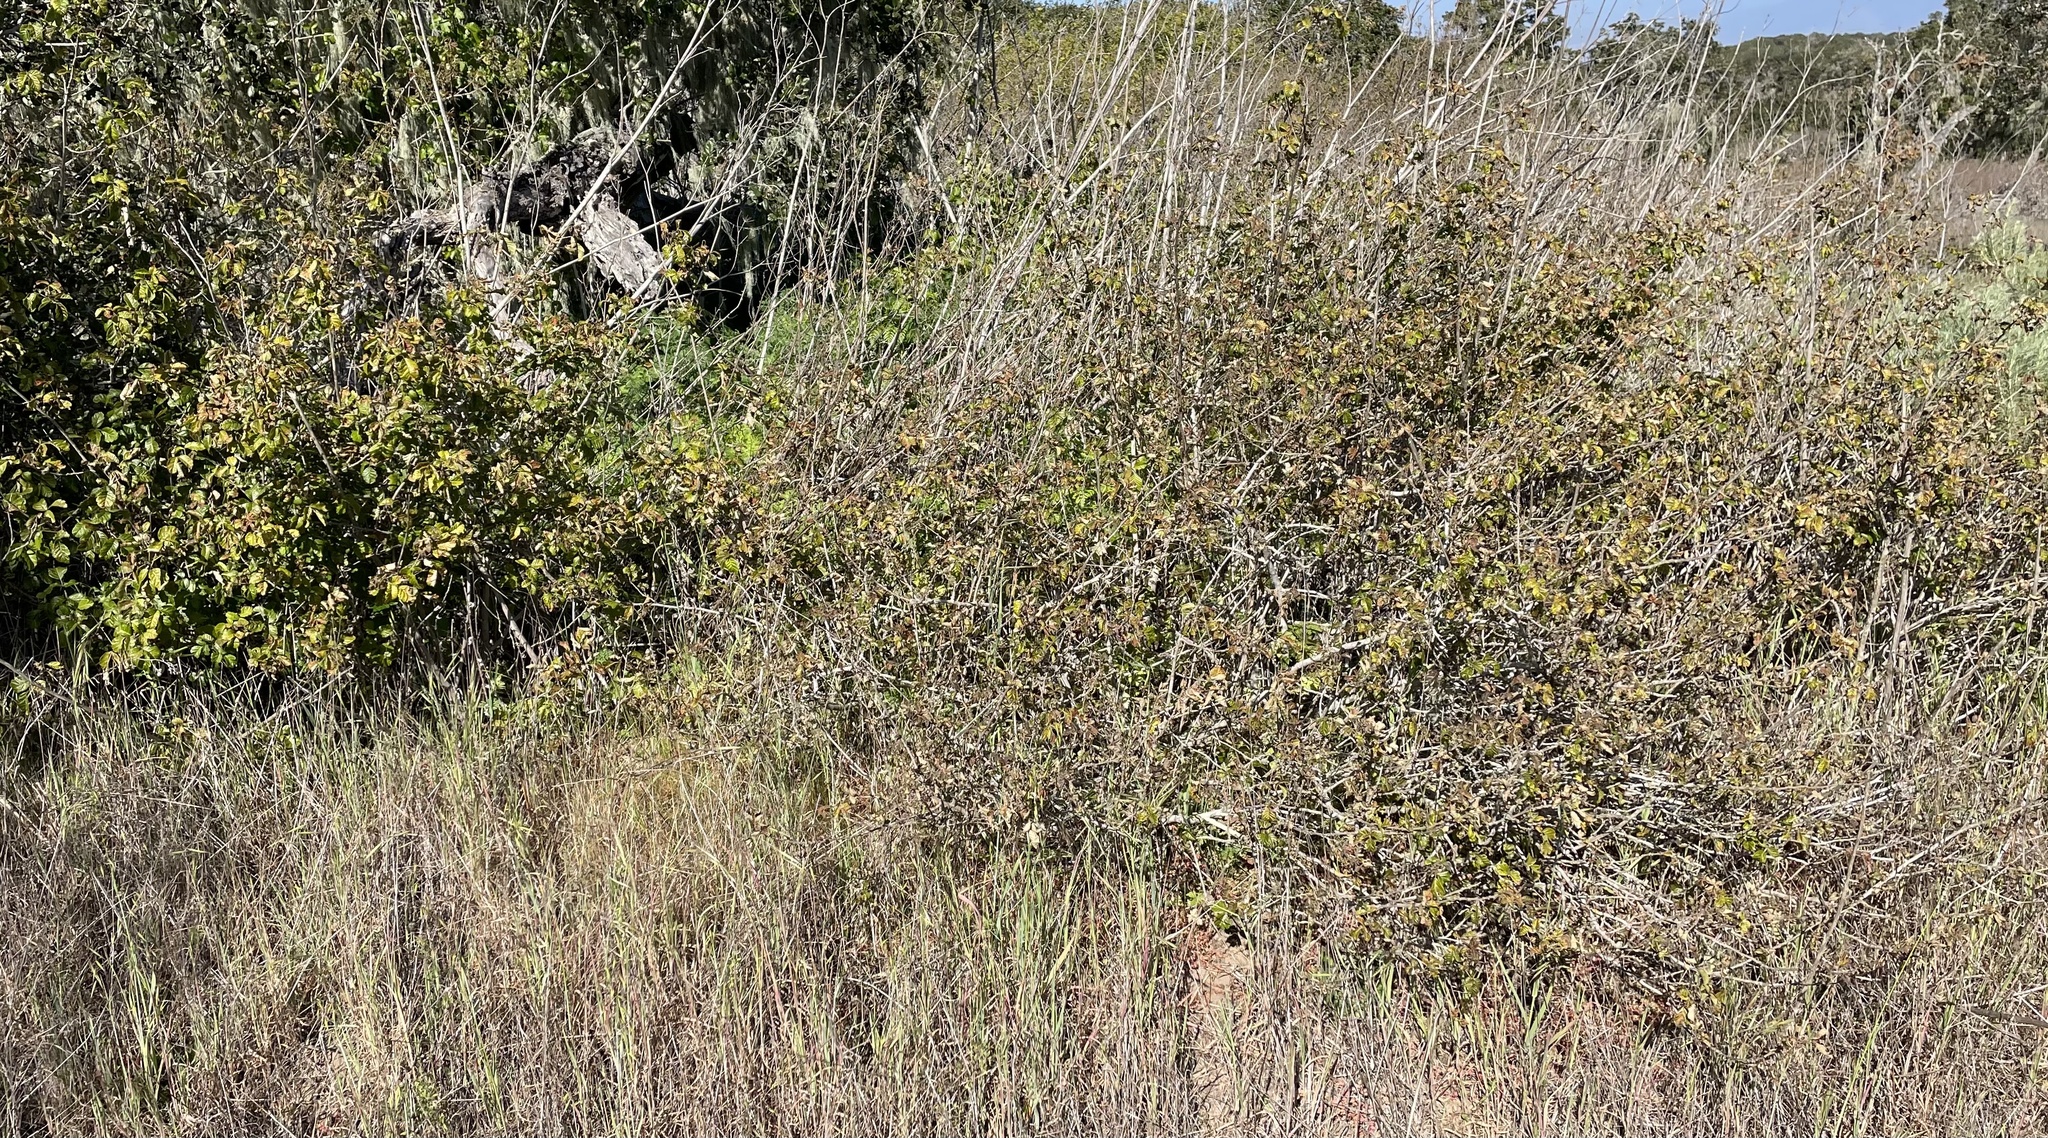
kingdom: Plantae
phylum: Tracheophyta
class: Magnoliopsida
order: Sapindales
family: Anacardiaceae
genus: Toxicodendron
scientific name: Toxicodendron diversilobum
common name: Pacific poison-oak
